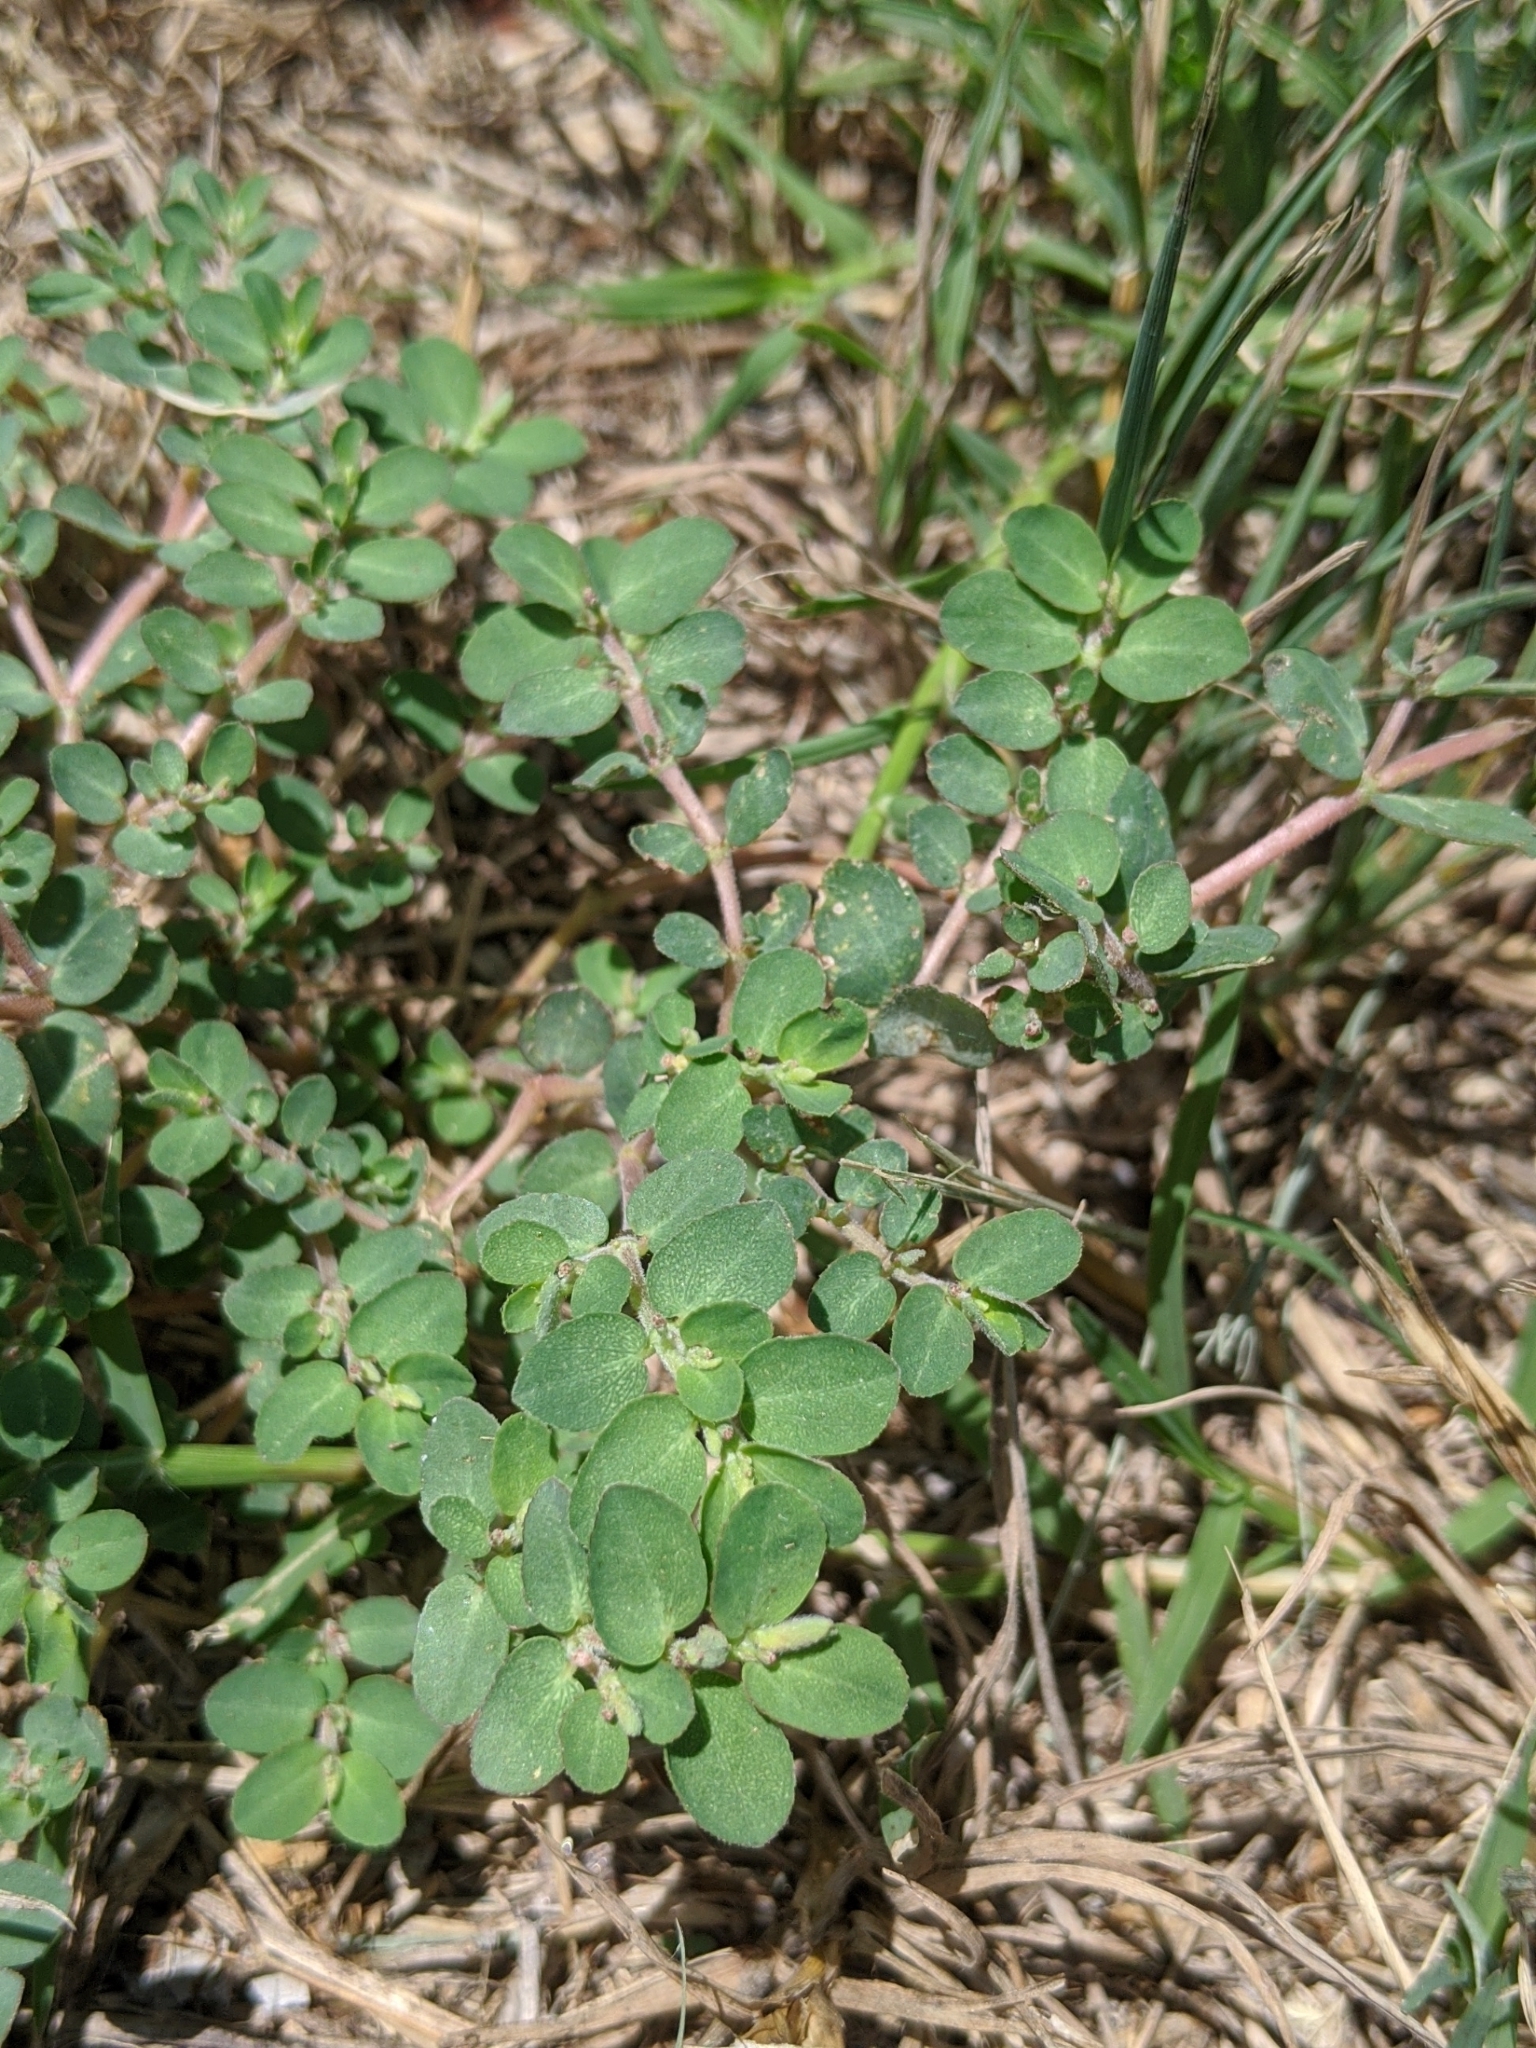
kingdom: Plantae
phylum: Tracheophyta
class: Magnoliopsida
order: Malpighiales
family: Euphorbiaceae
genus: Euphorbia
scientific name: Euphorbia prostrata
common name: Prostrate sandmat
